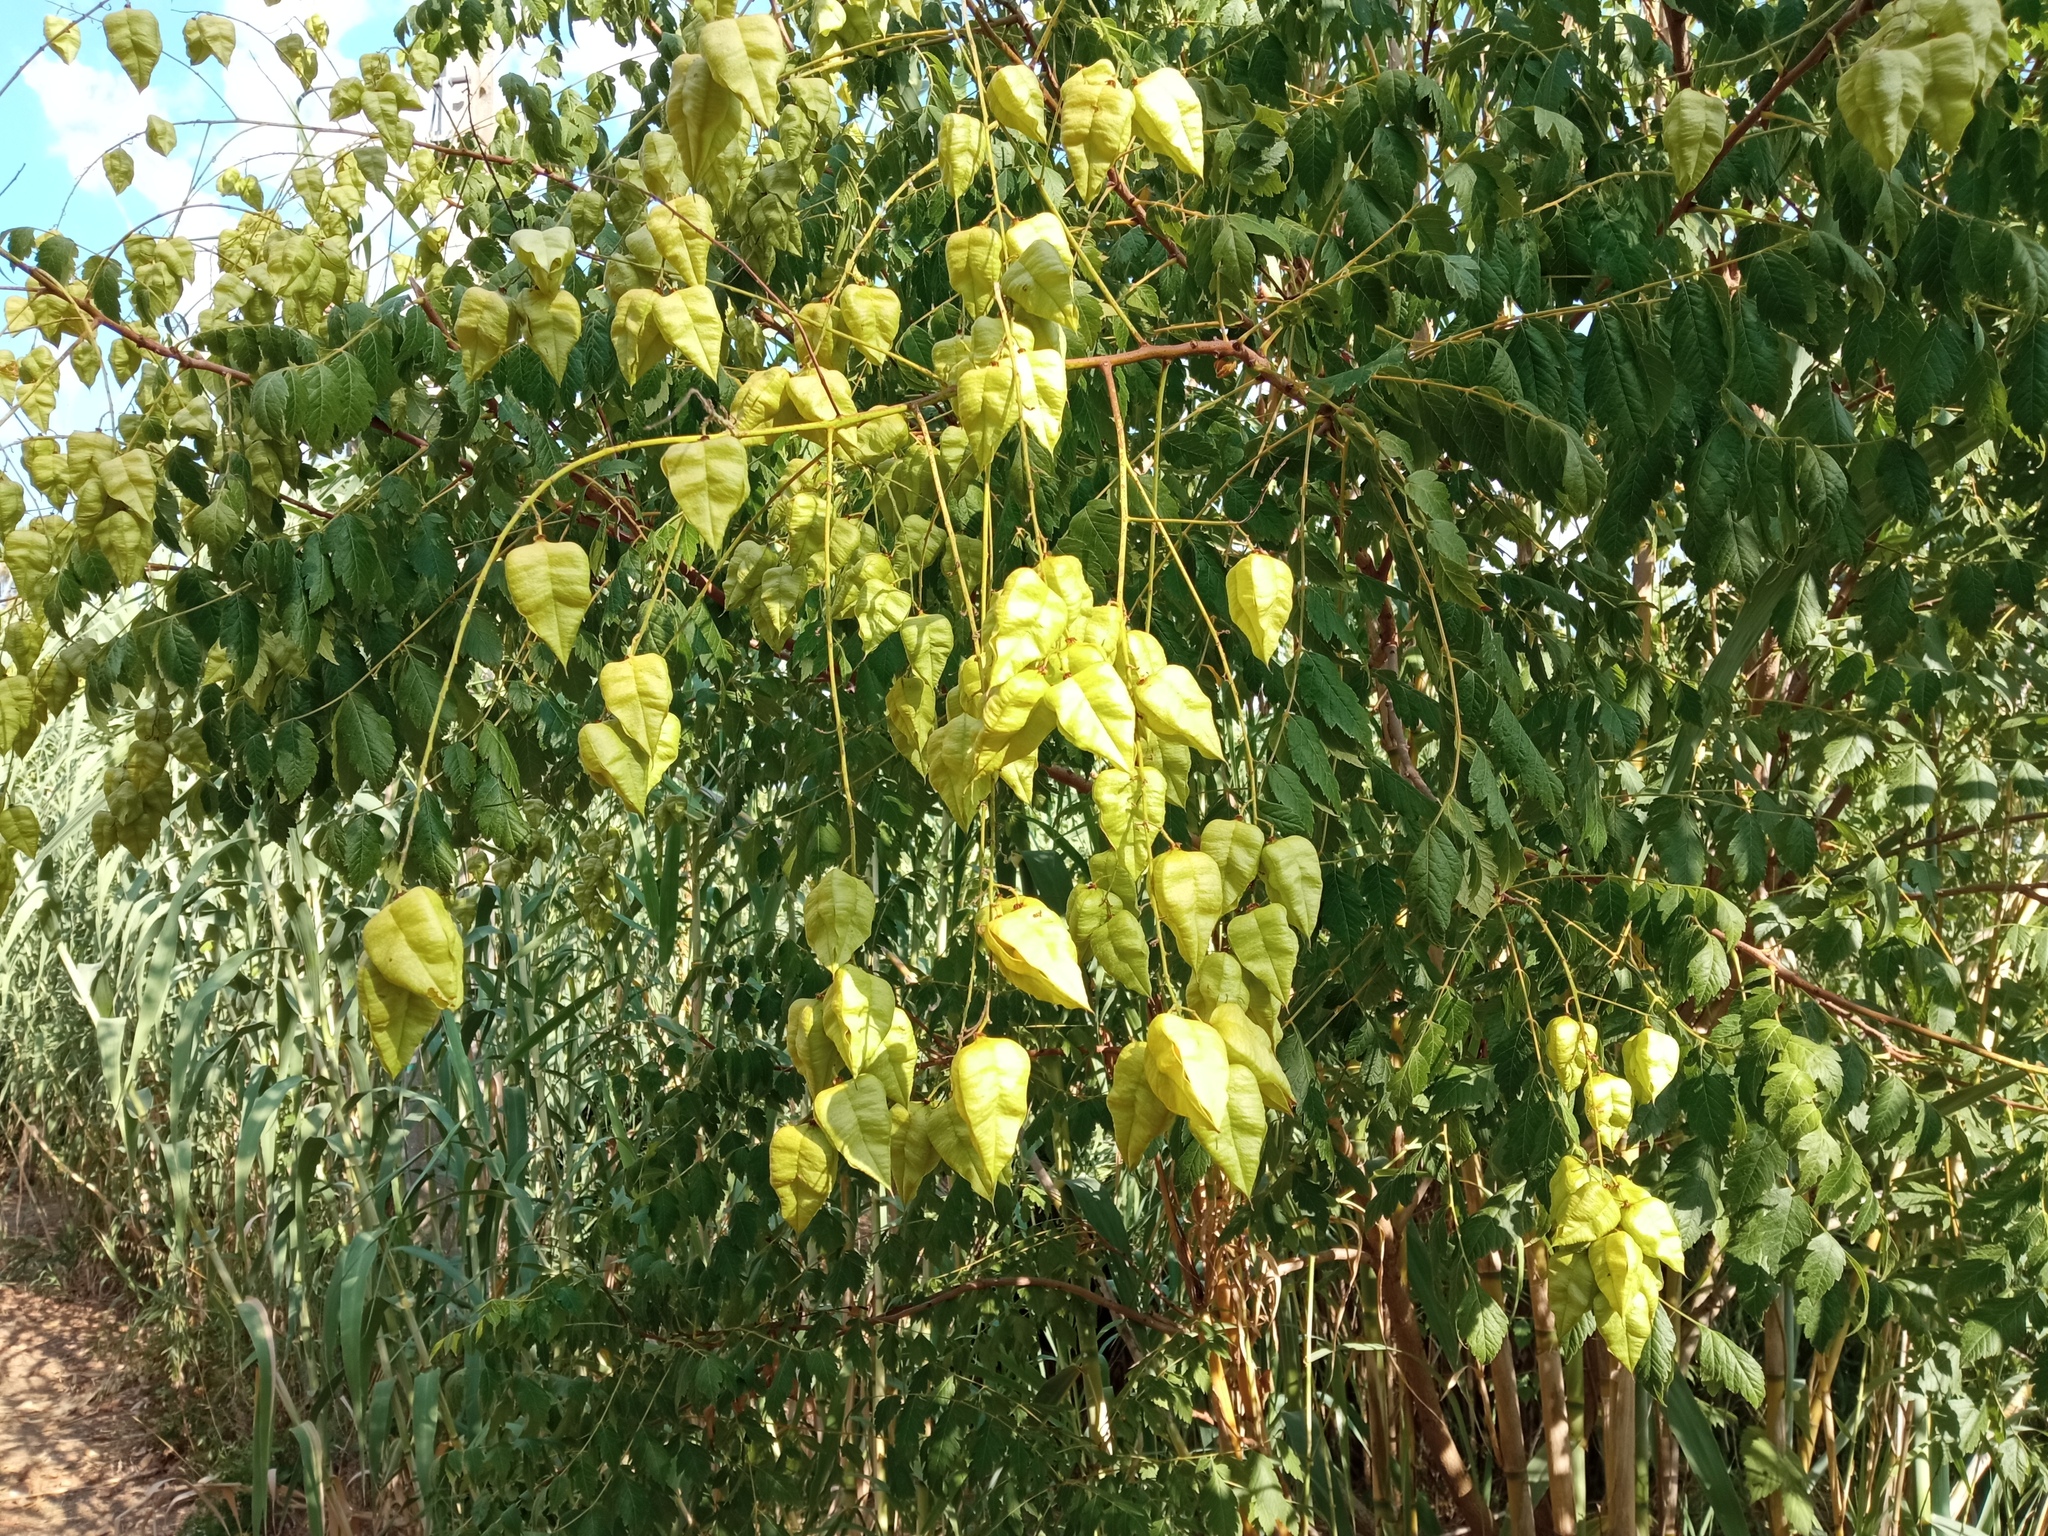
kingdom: Plantae
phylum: Tracheophyta
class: Magnoliopsida
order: Sapindales
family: Sapindaceae
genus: Koelreuteria
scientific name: Koelreuteria paniculata
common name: Pride-of-india
